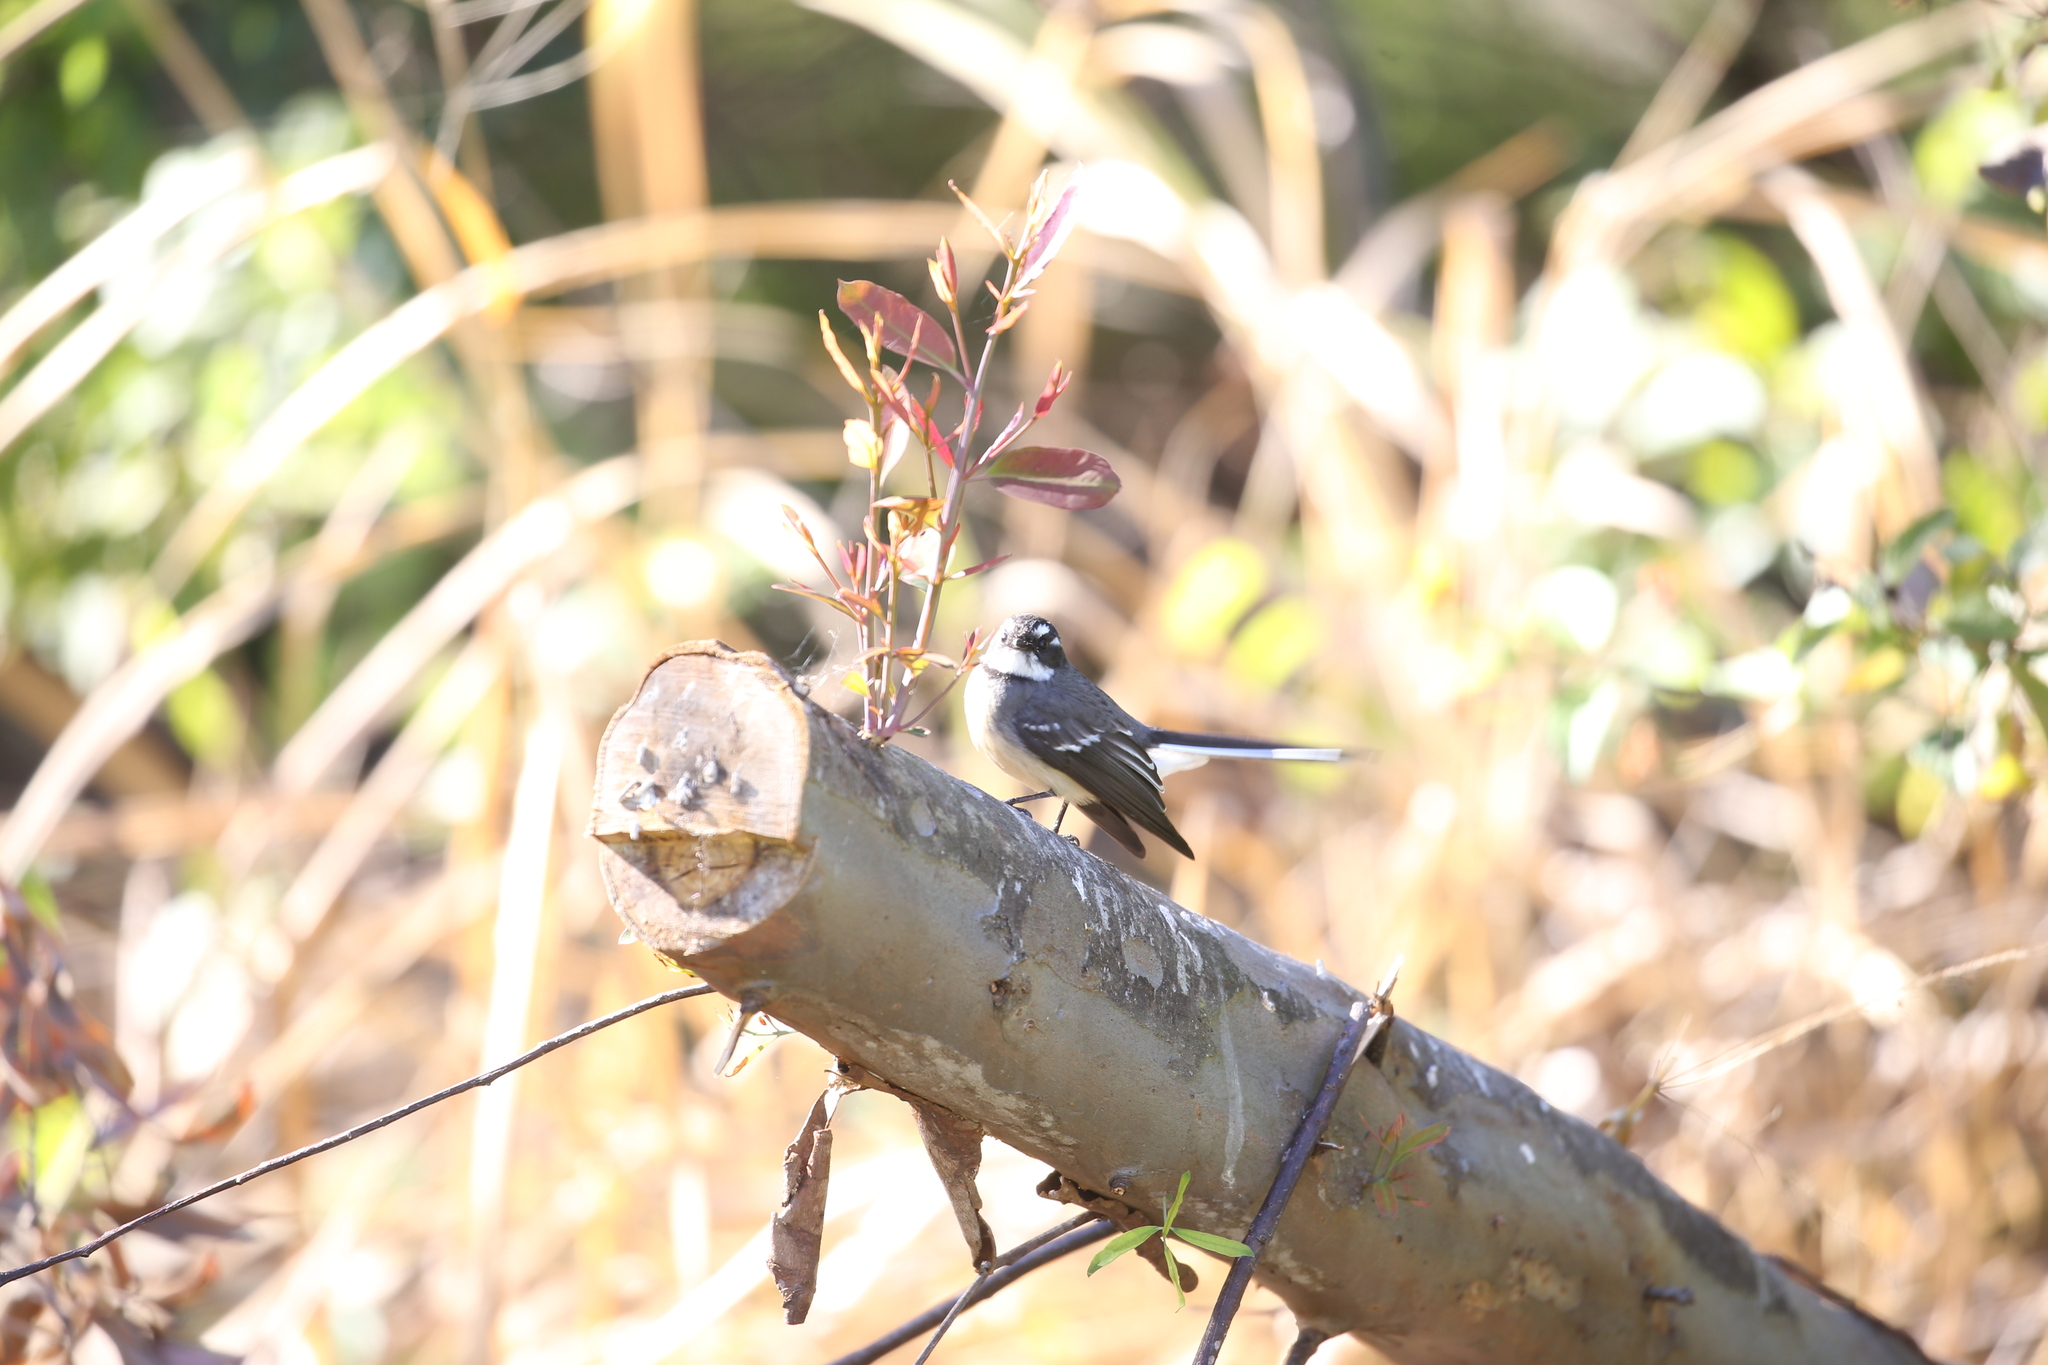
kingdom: Animalia
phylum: Chordata
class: Aves
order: Passeriformes
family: Rhipiduridae
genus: Rhipidura
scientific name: Rhipidura albiscapa
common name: Grey fantail
